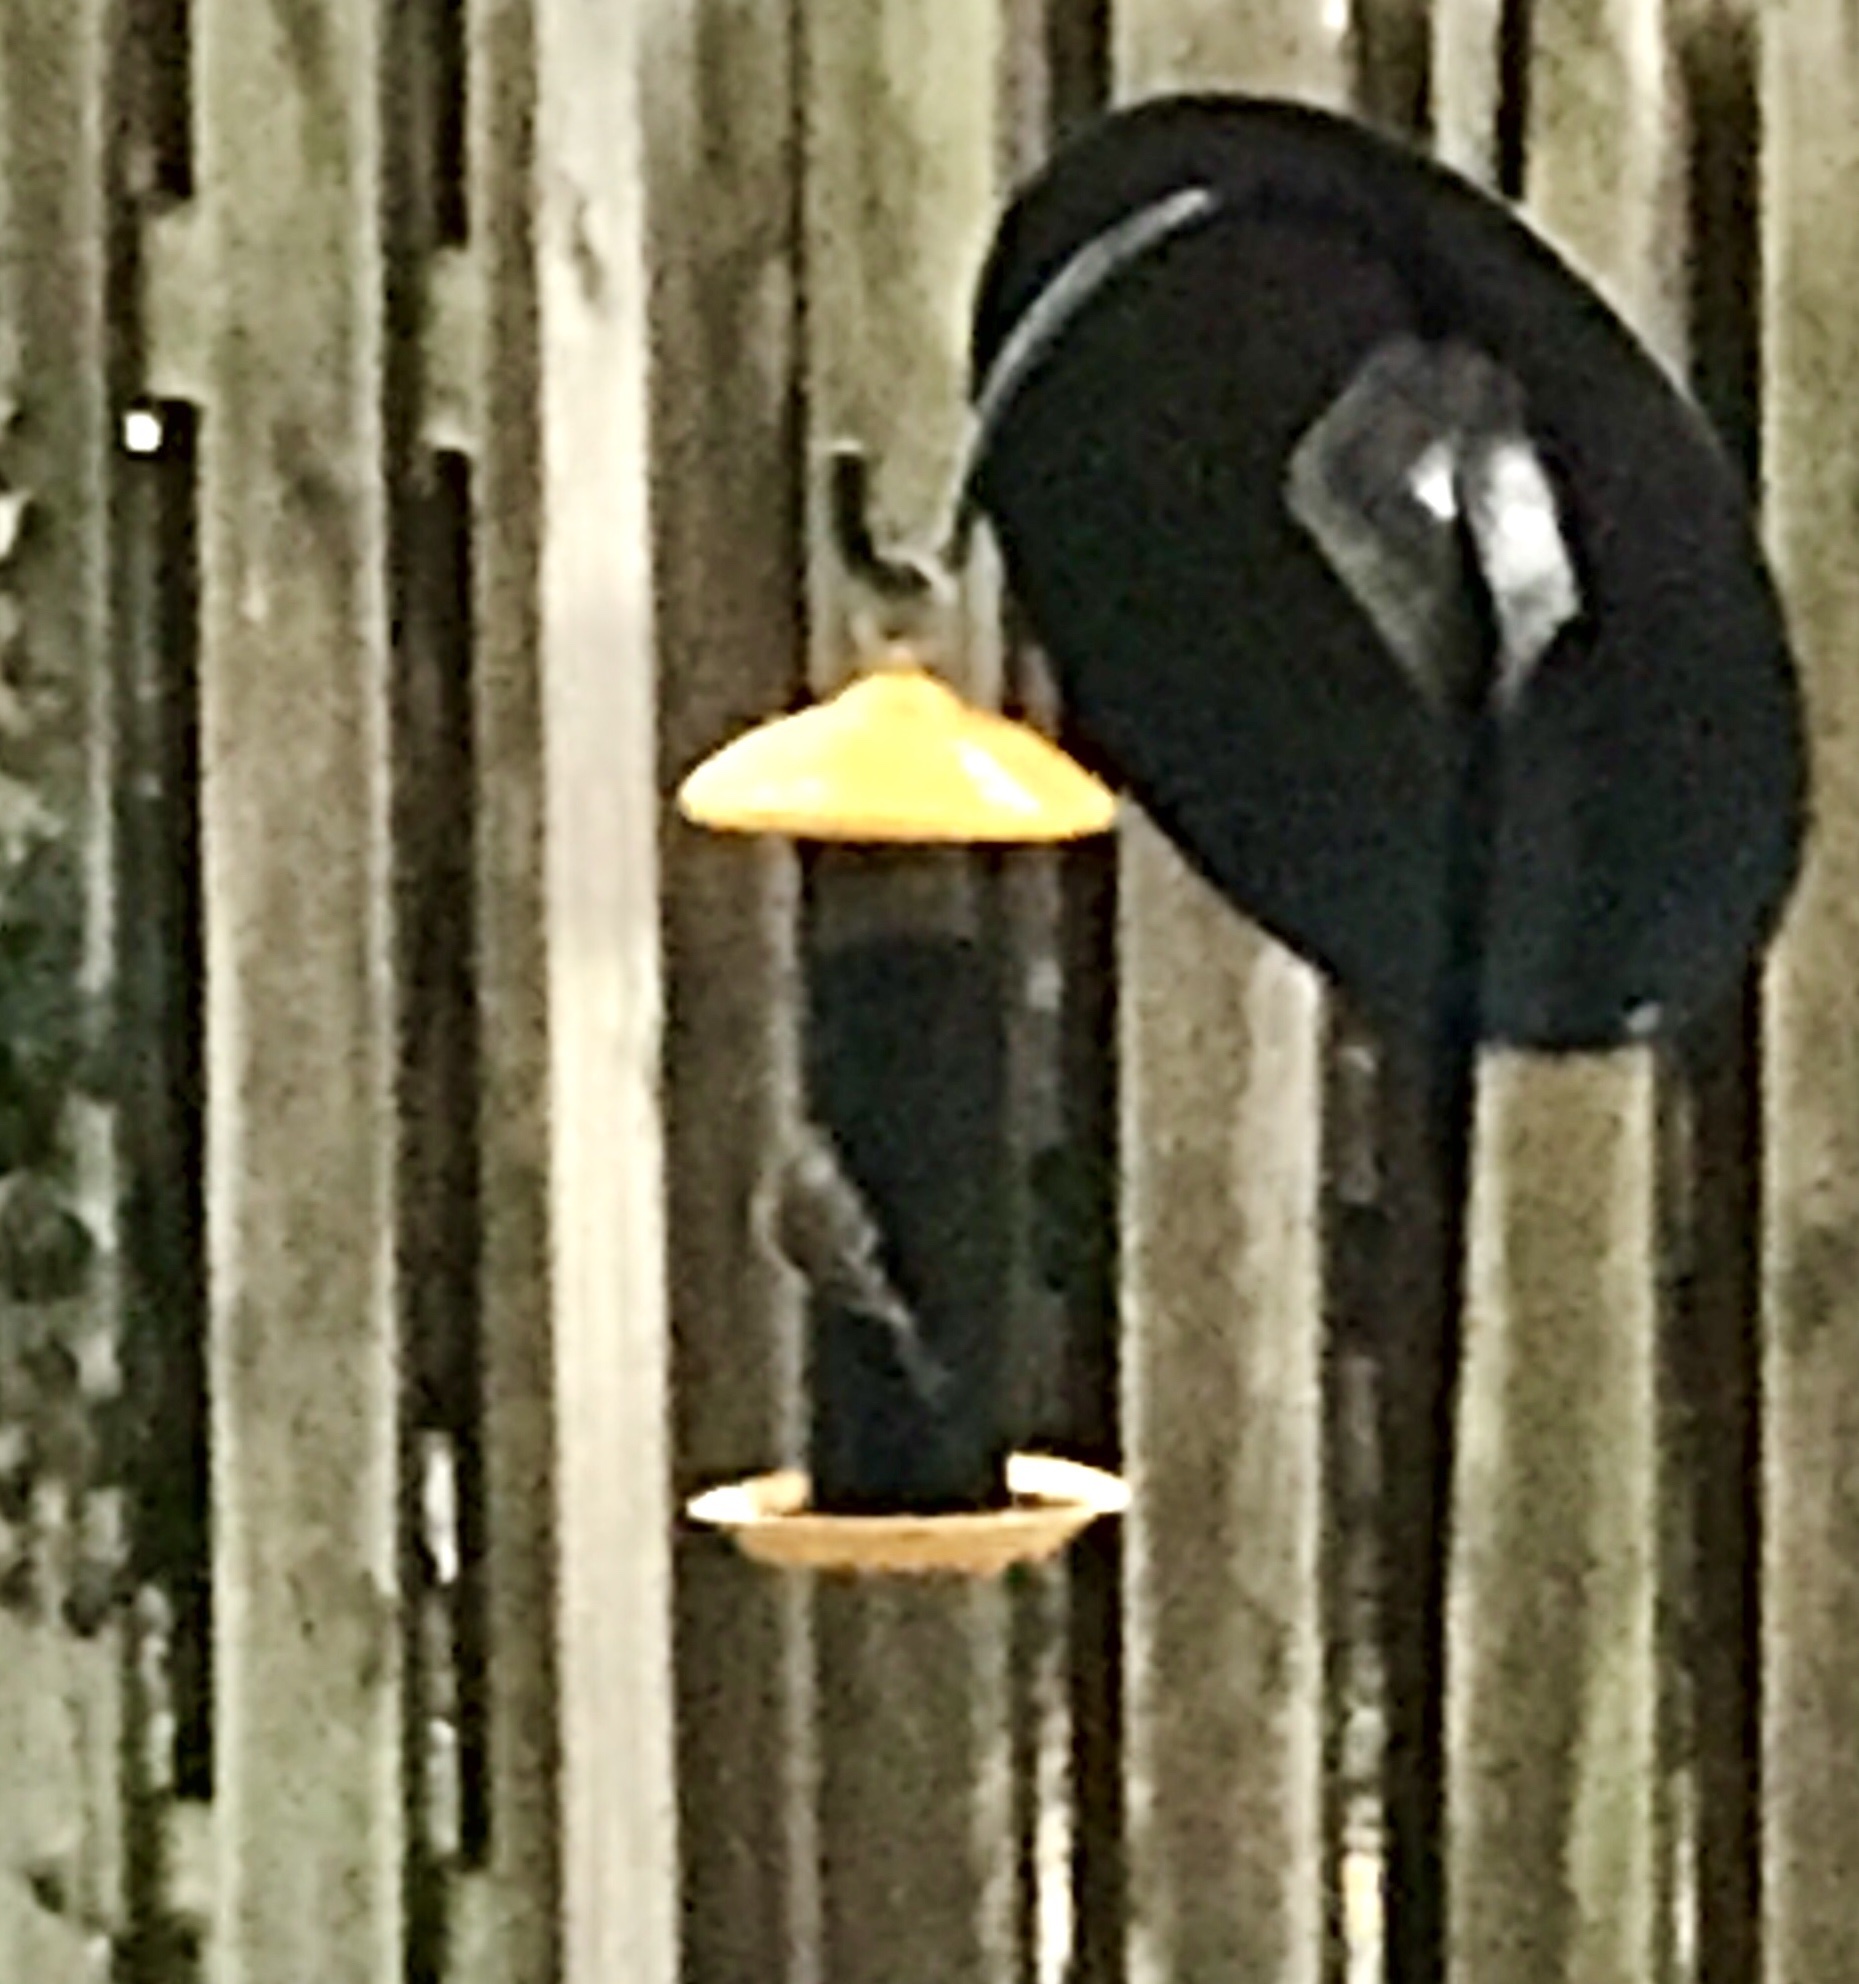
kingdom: Animalia
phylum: Chordata
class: Aves
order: Passeriformes
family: Fringillidae
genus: Spinus
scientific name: Spinus tristis
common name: American goldfinch
